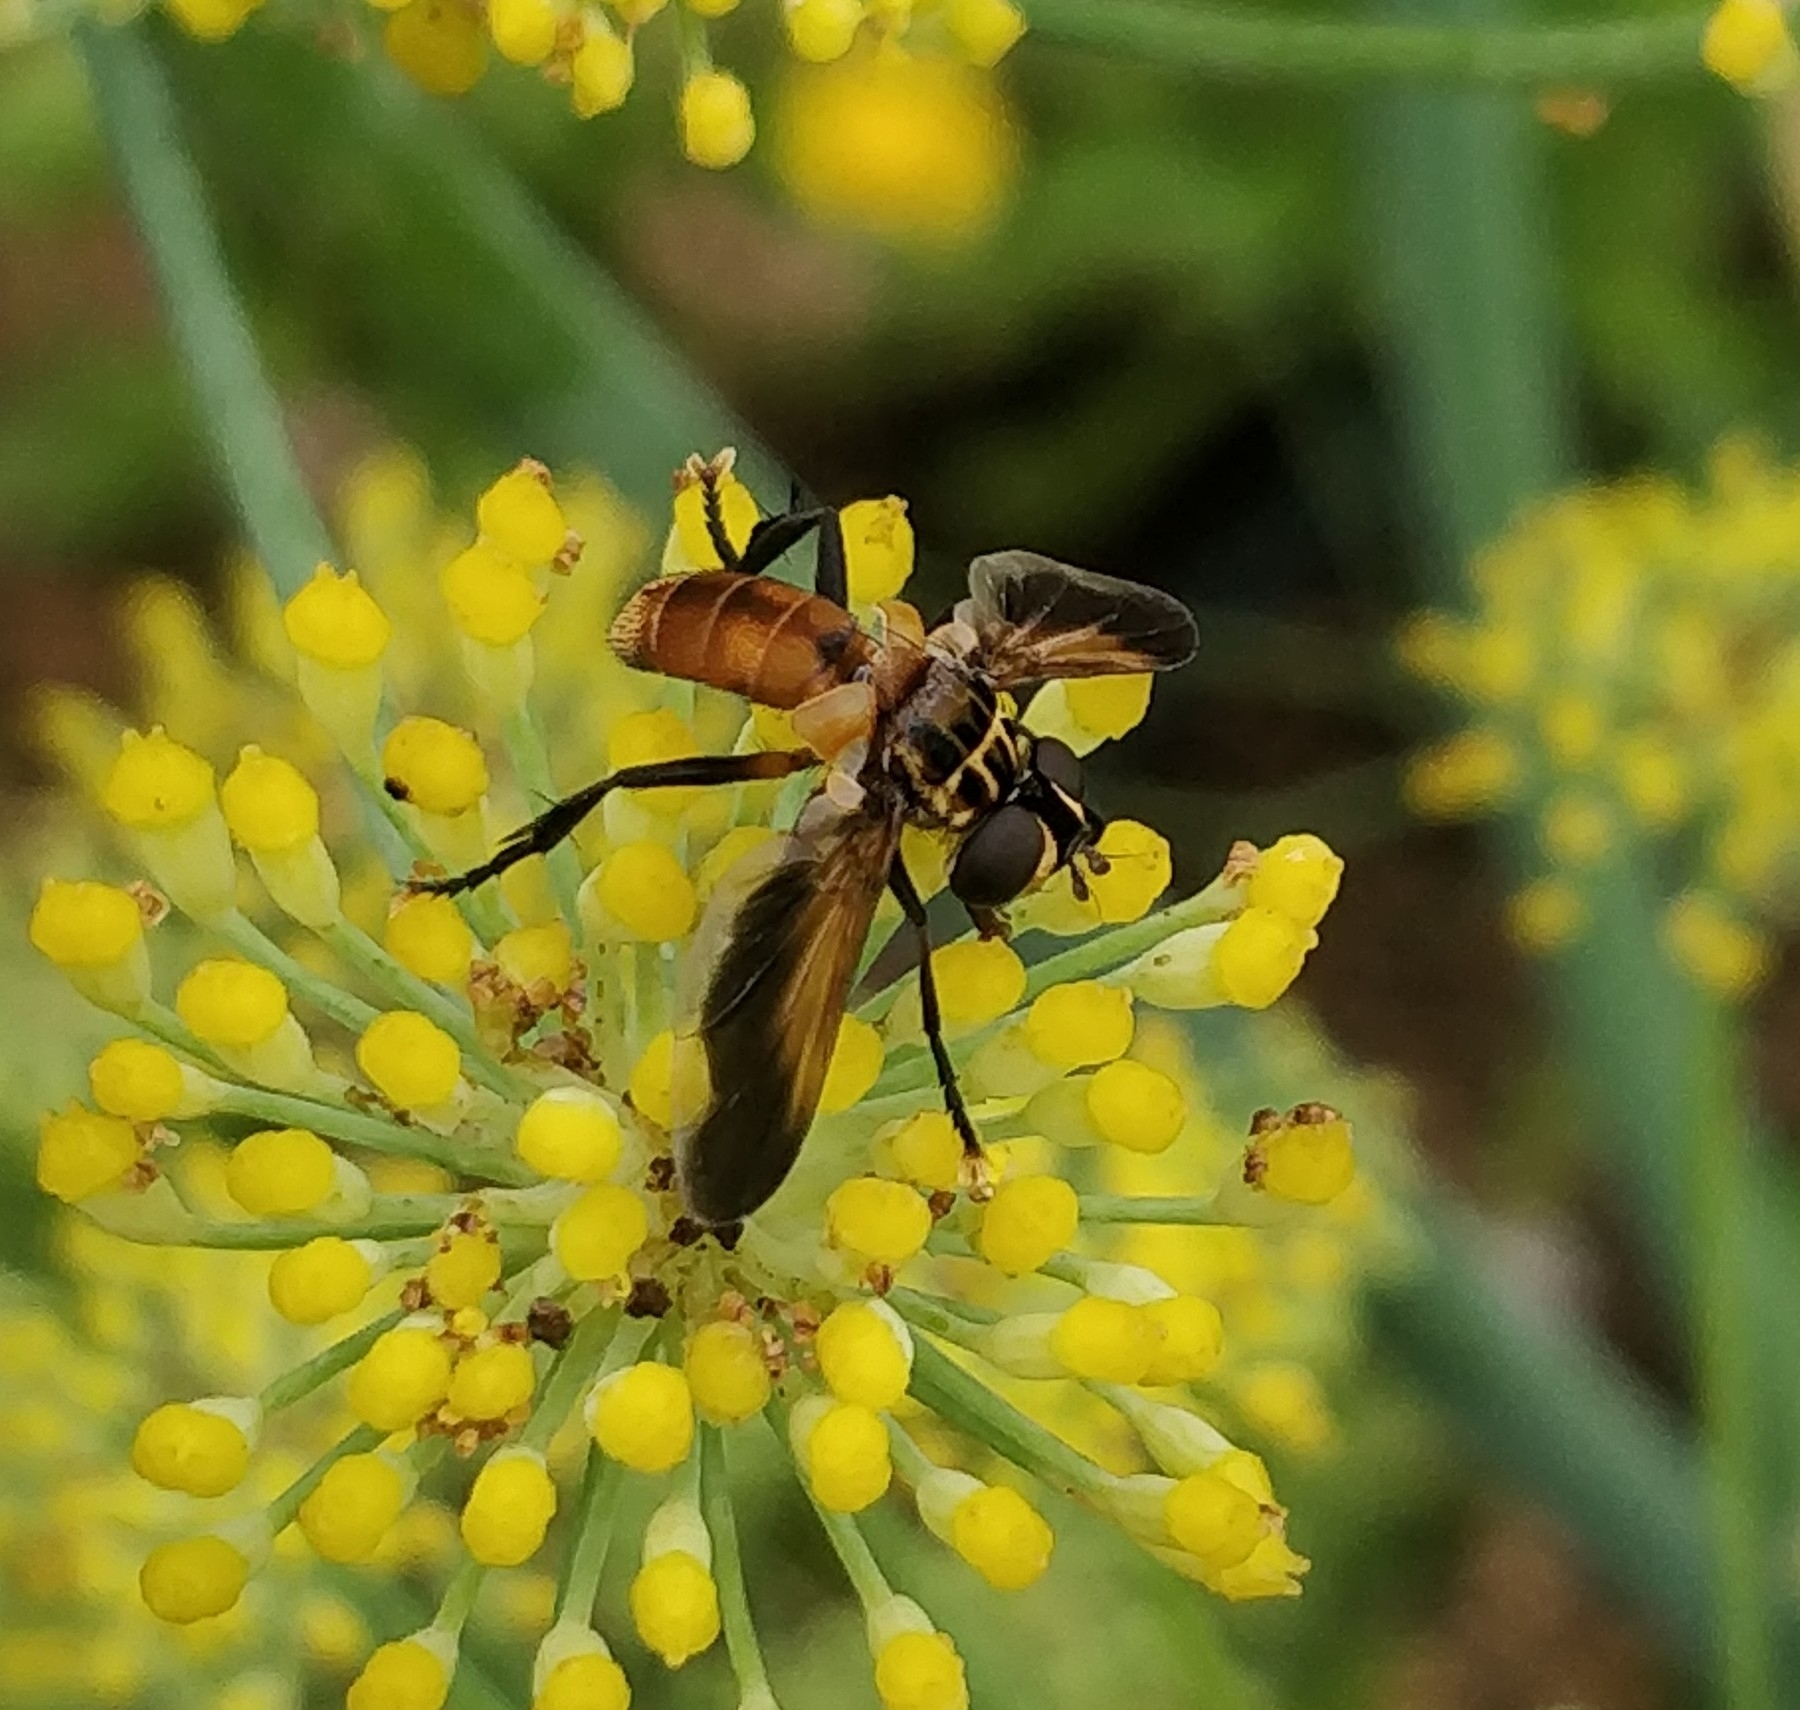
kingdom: Animalia
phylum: Arthropoda
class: Insecta
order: Diptera
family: Tachinidae
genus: Trichopoda
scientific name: Trichopoda pictipennis
